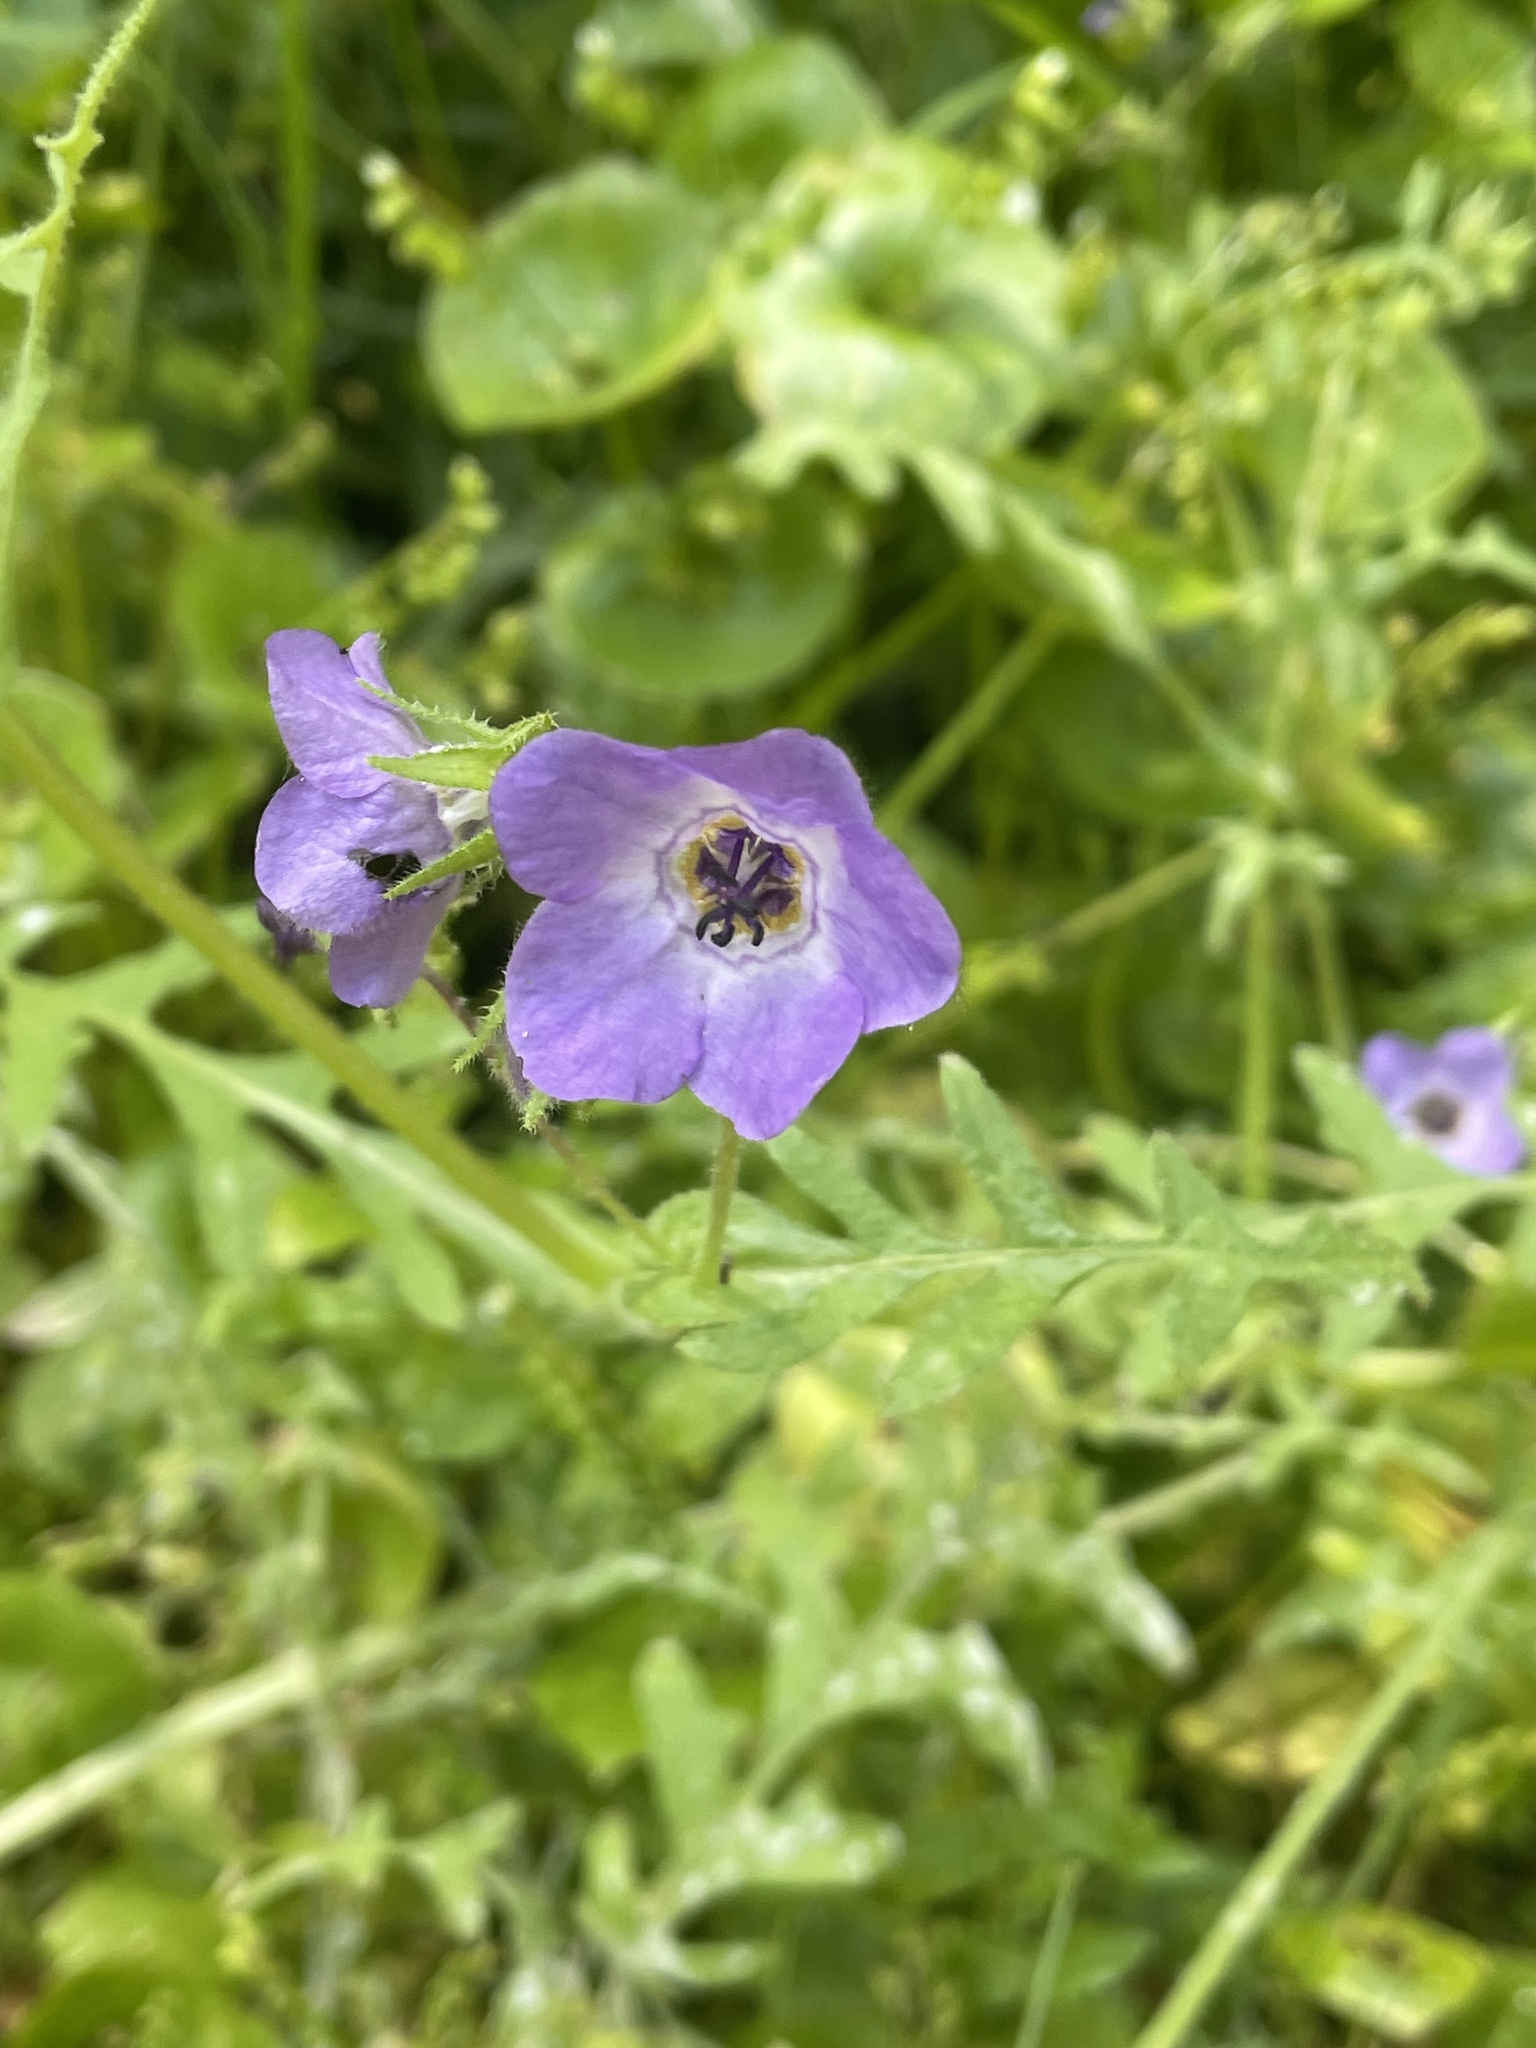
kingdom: Plantae
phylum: Tracheophyta
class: Magnoliopsida
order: Boraginales
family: Hydrophyllaceae
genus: Pholistoma
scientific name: Pholistoma auritum
